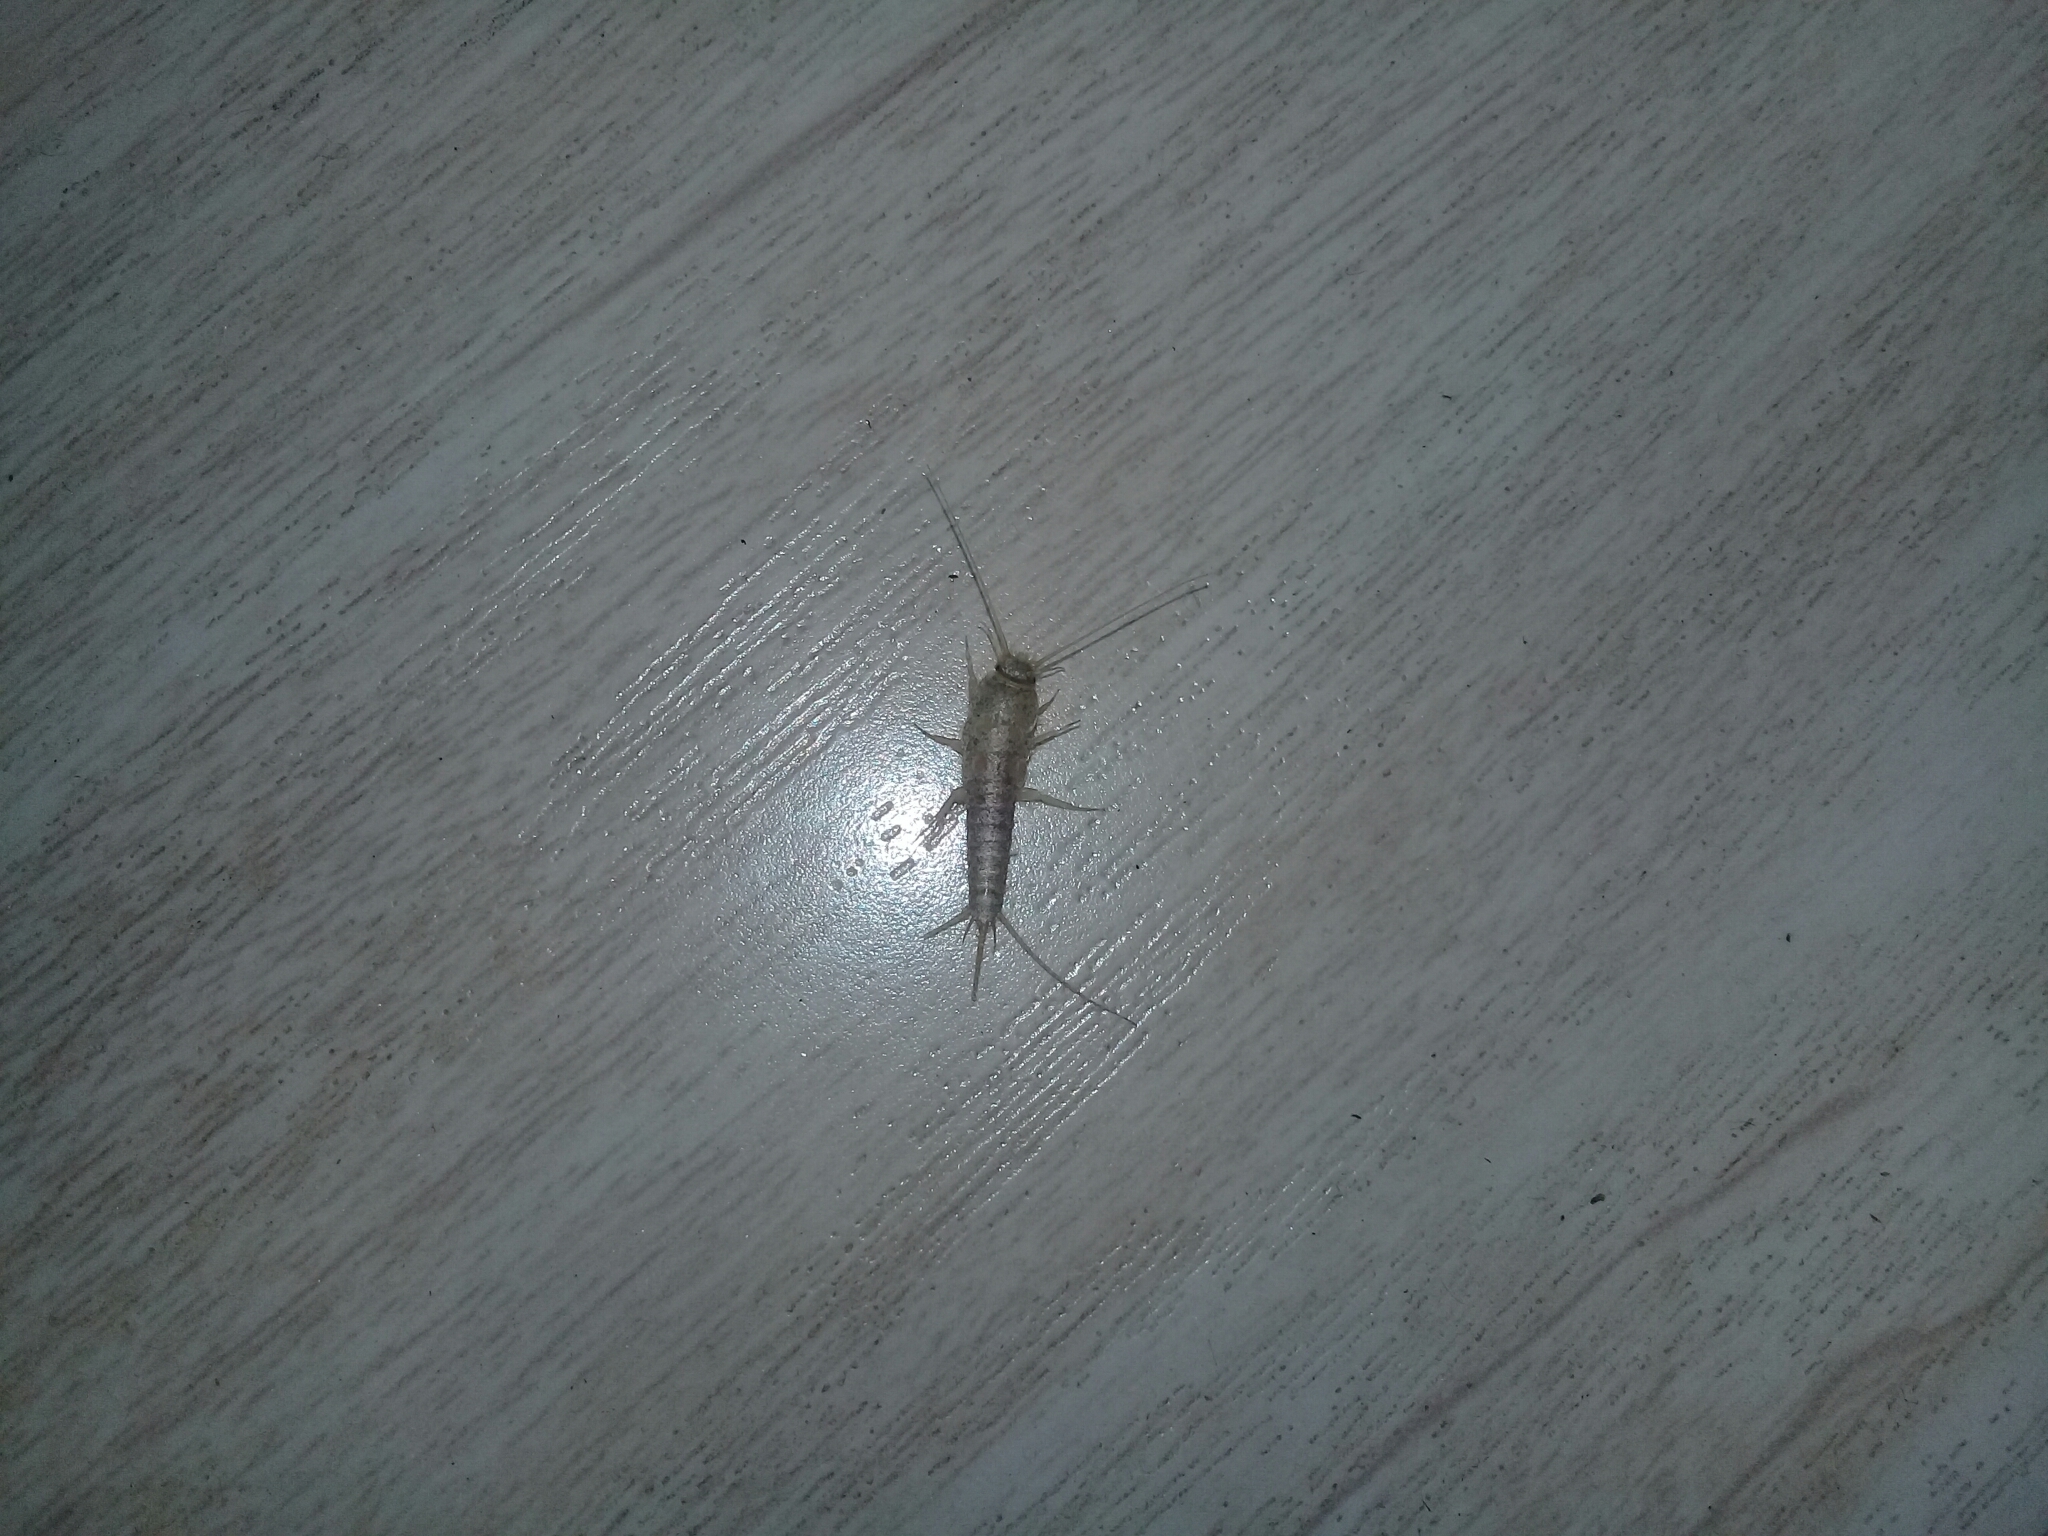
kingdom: Animalia
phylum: Arthropoda
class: Insecta
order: Zygentoma
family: Lepismatidae
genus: Ctenolepisma
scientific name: Ctenolepisma longicaudatum
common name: Silverfish
